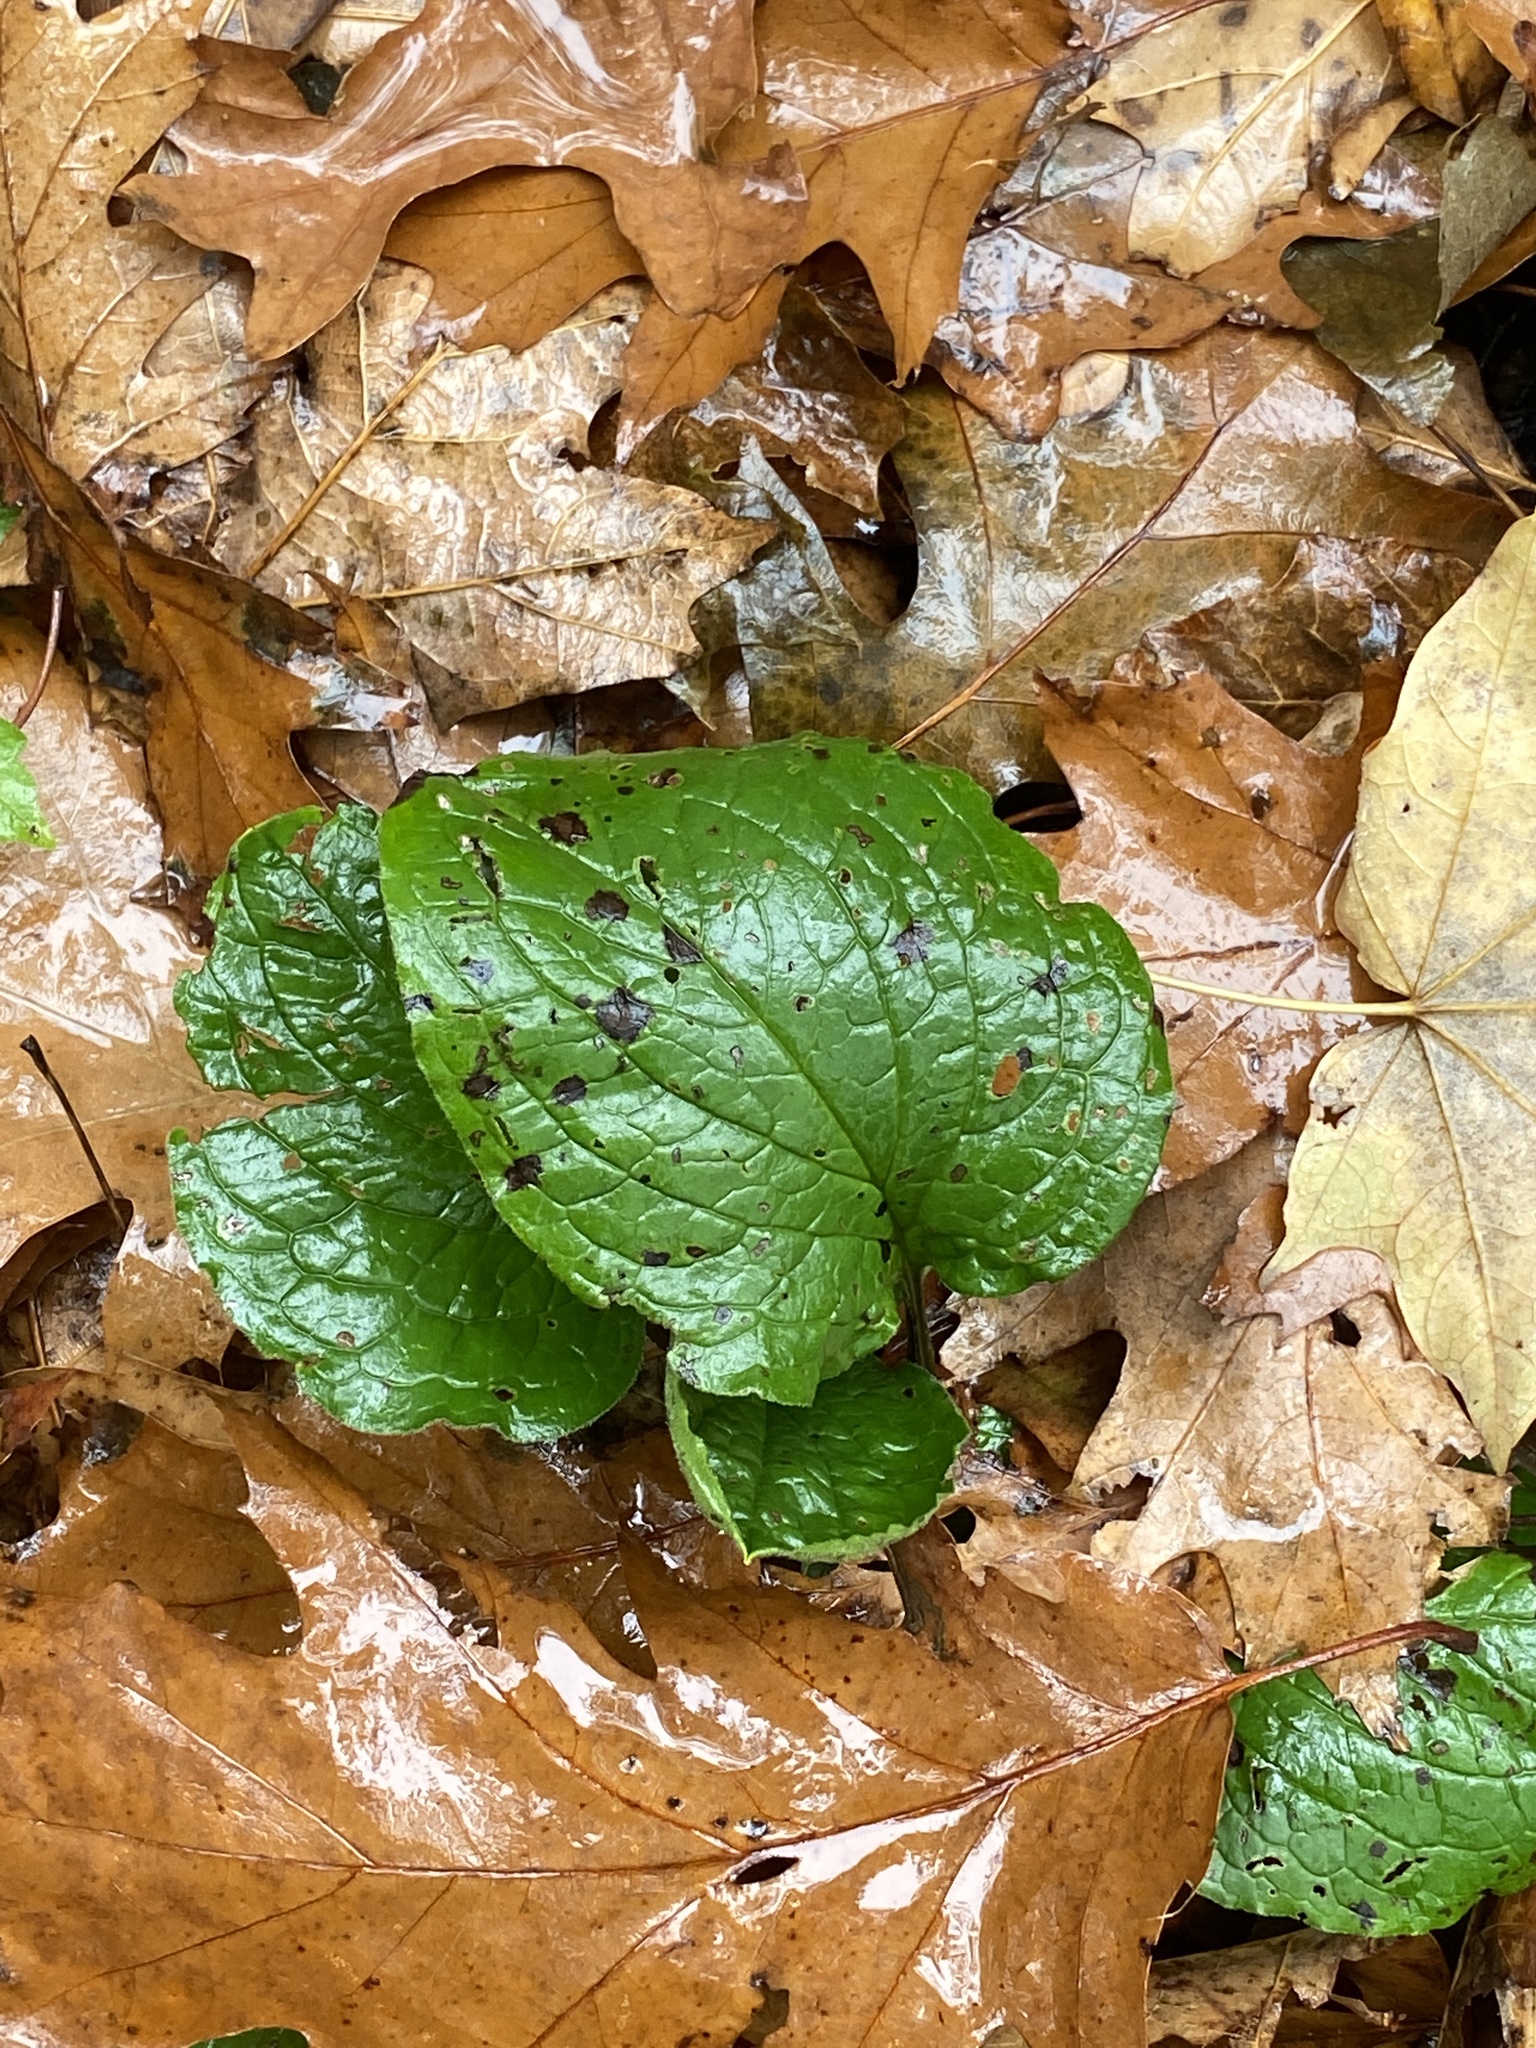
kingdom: Plantae
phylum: Tracheophyta
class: Magnoliopsida
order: Boraginales
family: Boraginaceae
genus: Hackelia
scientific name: Hackelia virginiana
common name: Beggar's-lice
